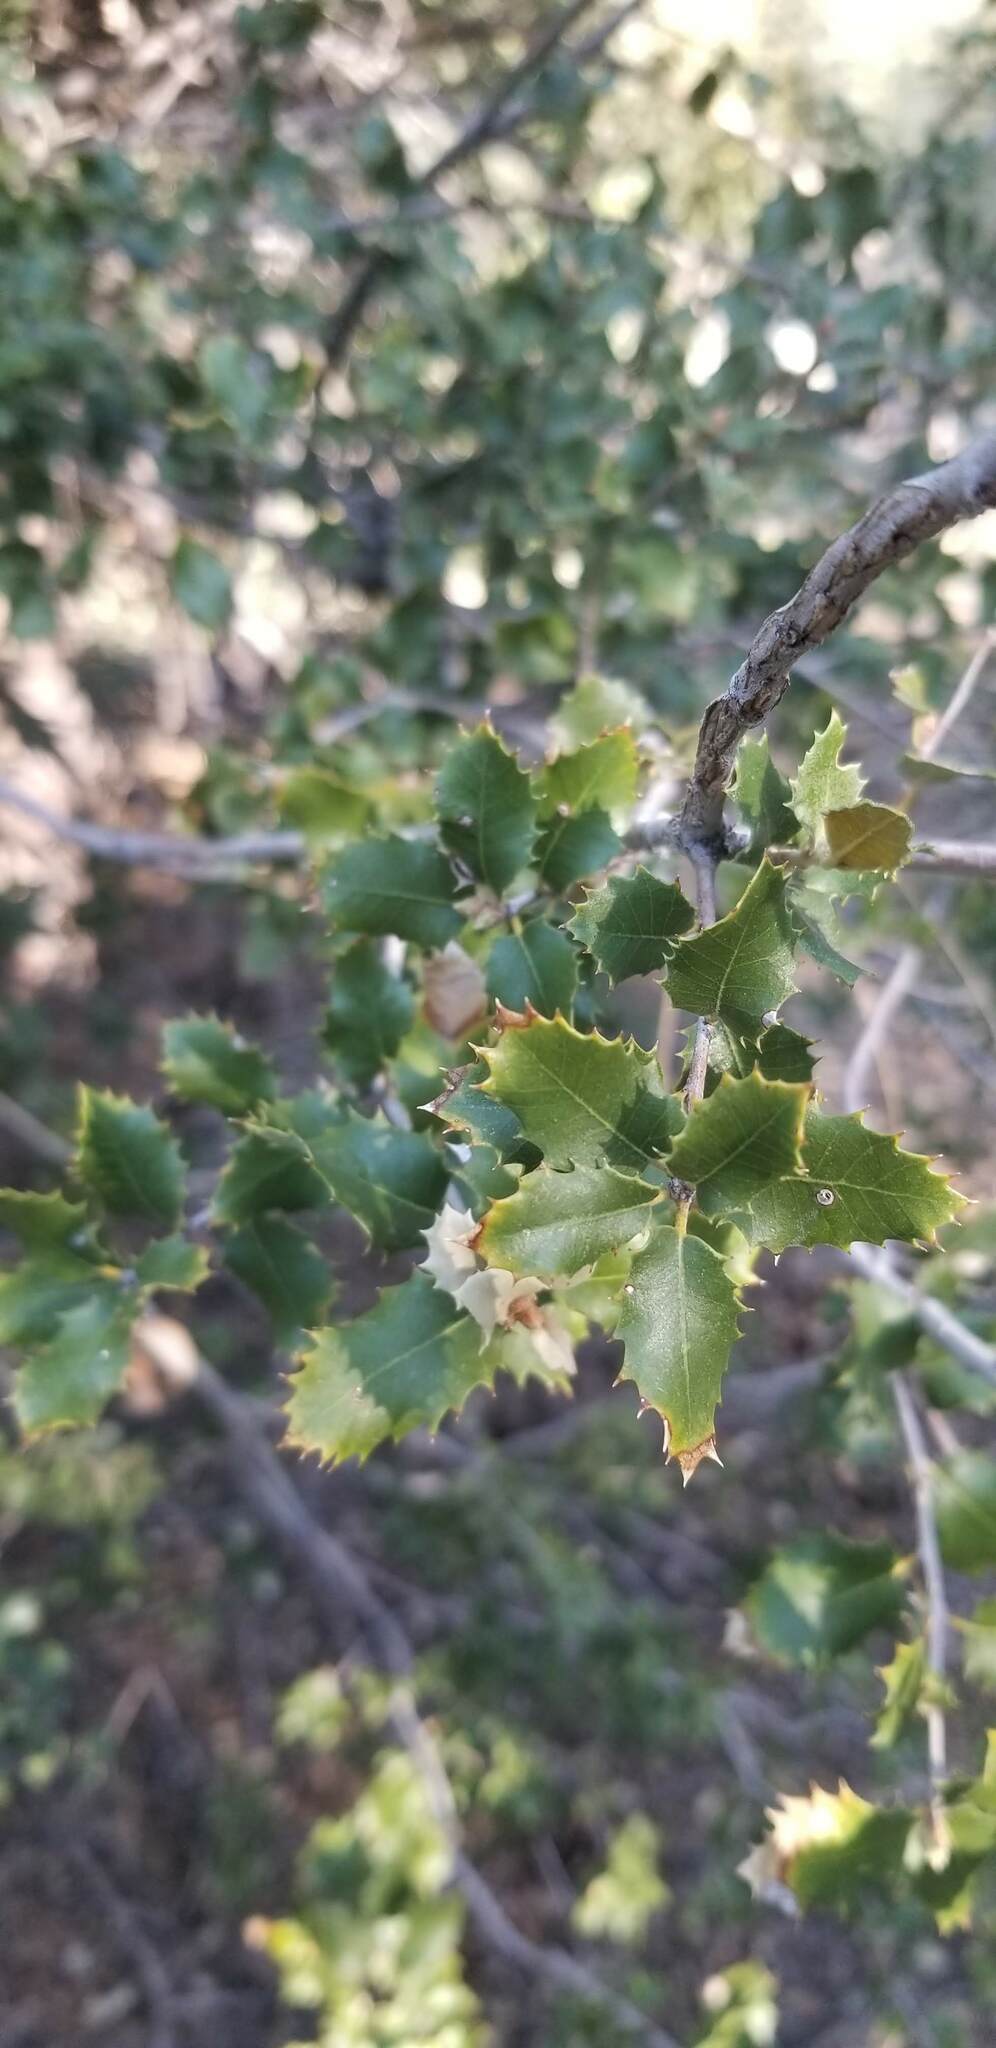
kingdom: Plantae
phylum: Tracheophyta
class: Magnoliopsida
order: Fagales
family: Fagaceae
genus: Quercus
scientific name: Quercus chrysolepis
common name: Canyon live oak
